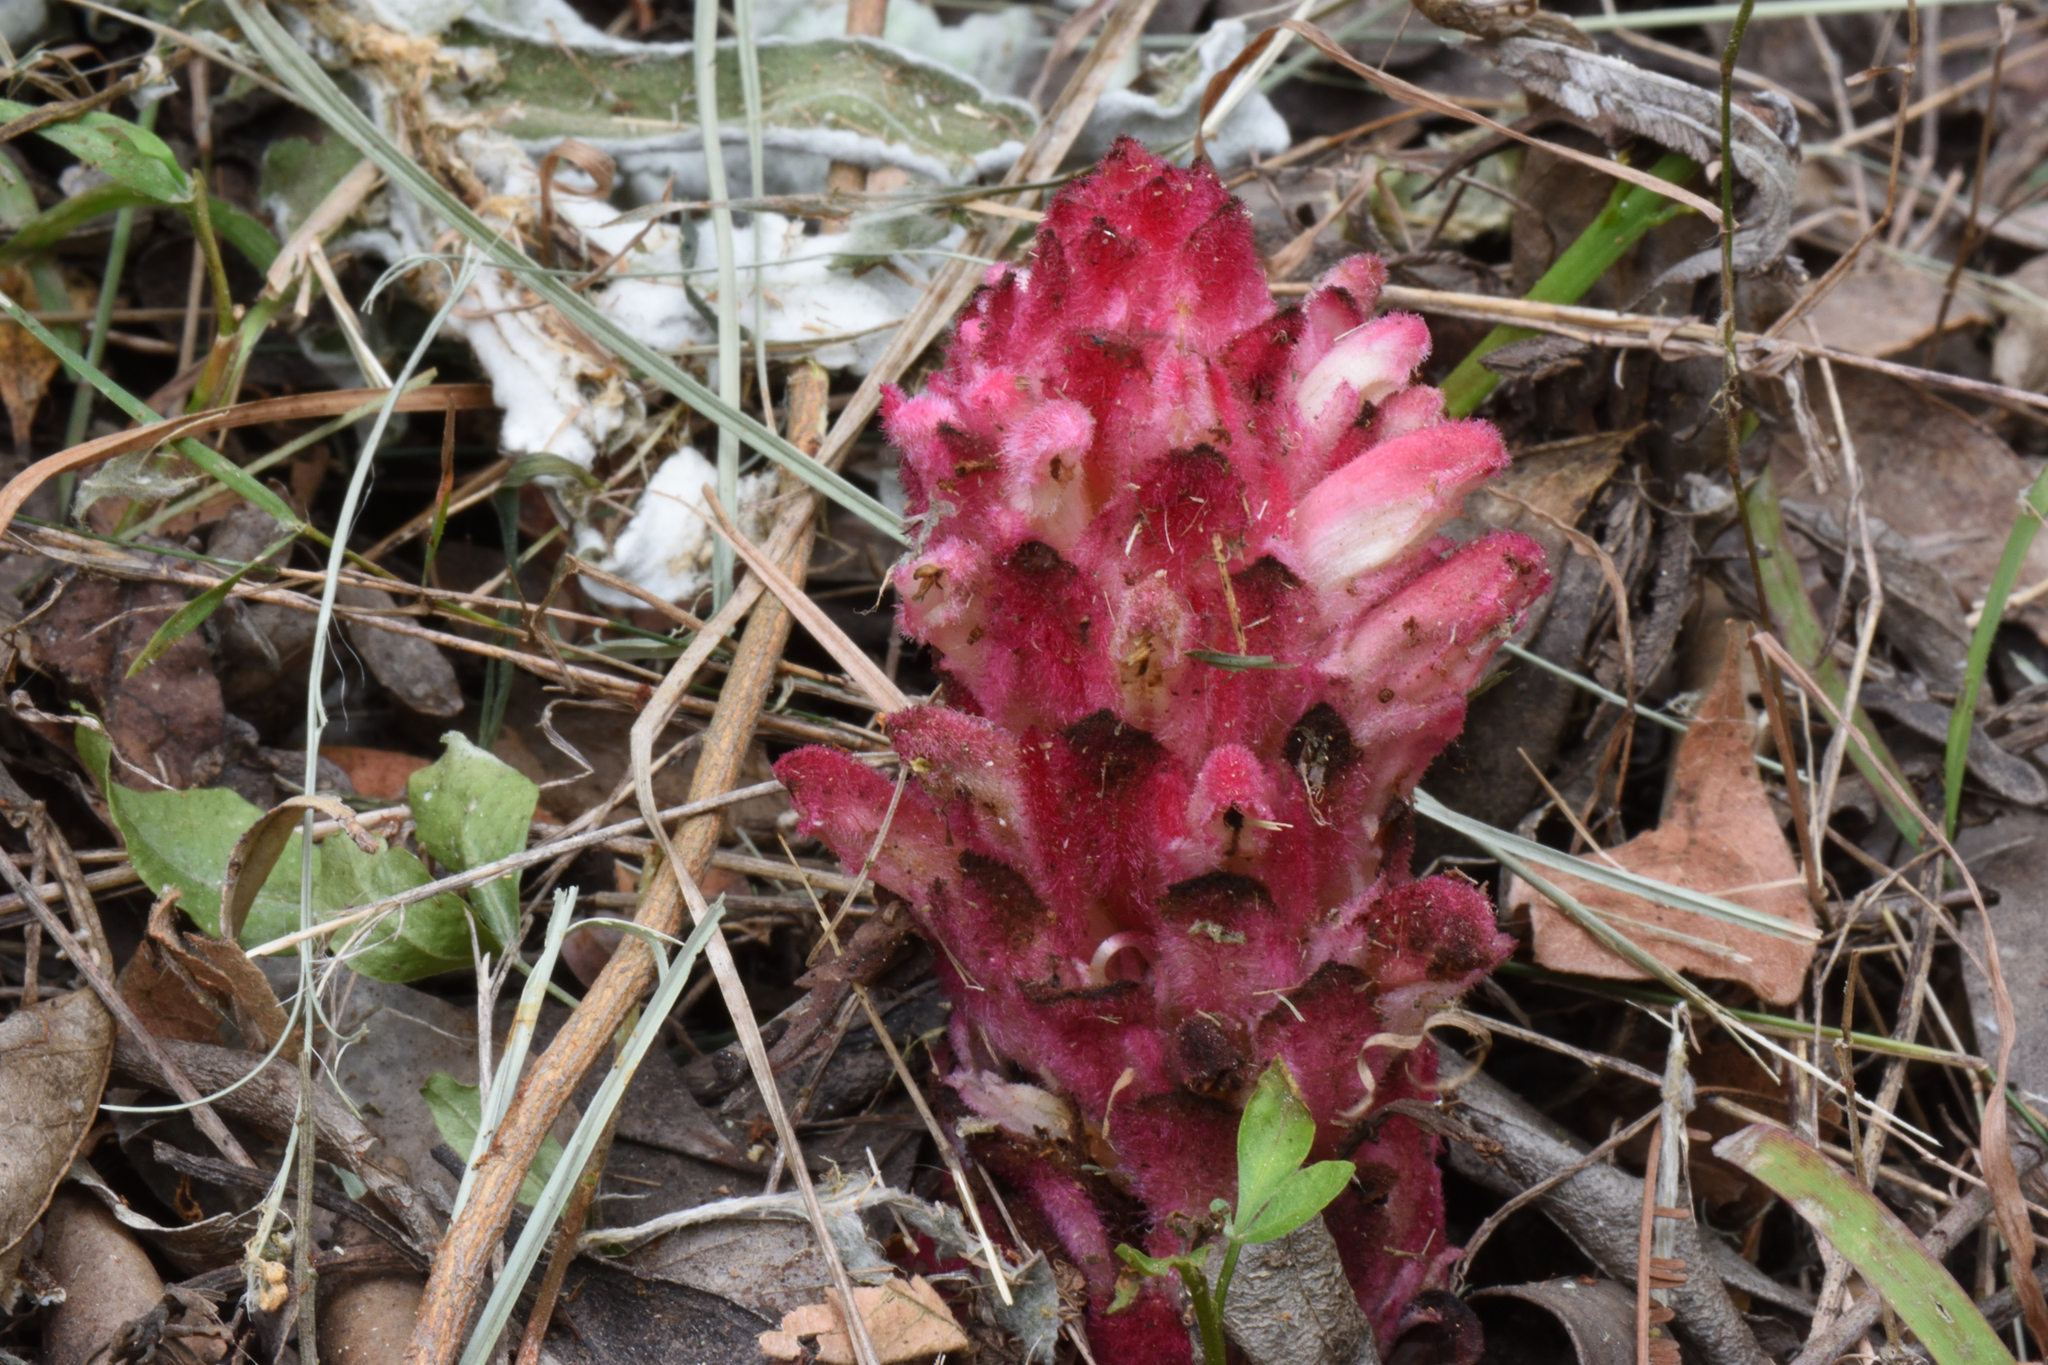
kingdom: Plantae
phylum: Tracheophyta
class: Magnoliopsida
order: Lamiales
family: Orobanchaceae
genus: Hyobanche
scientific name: Hyobanche sanguinea
